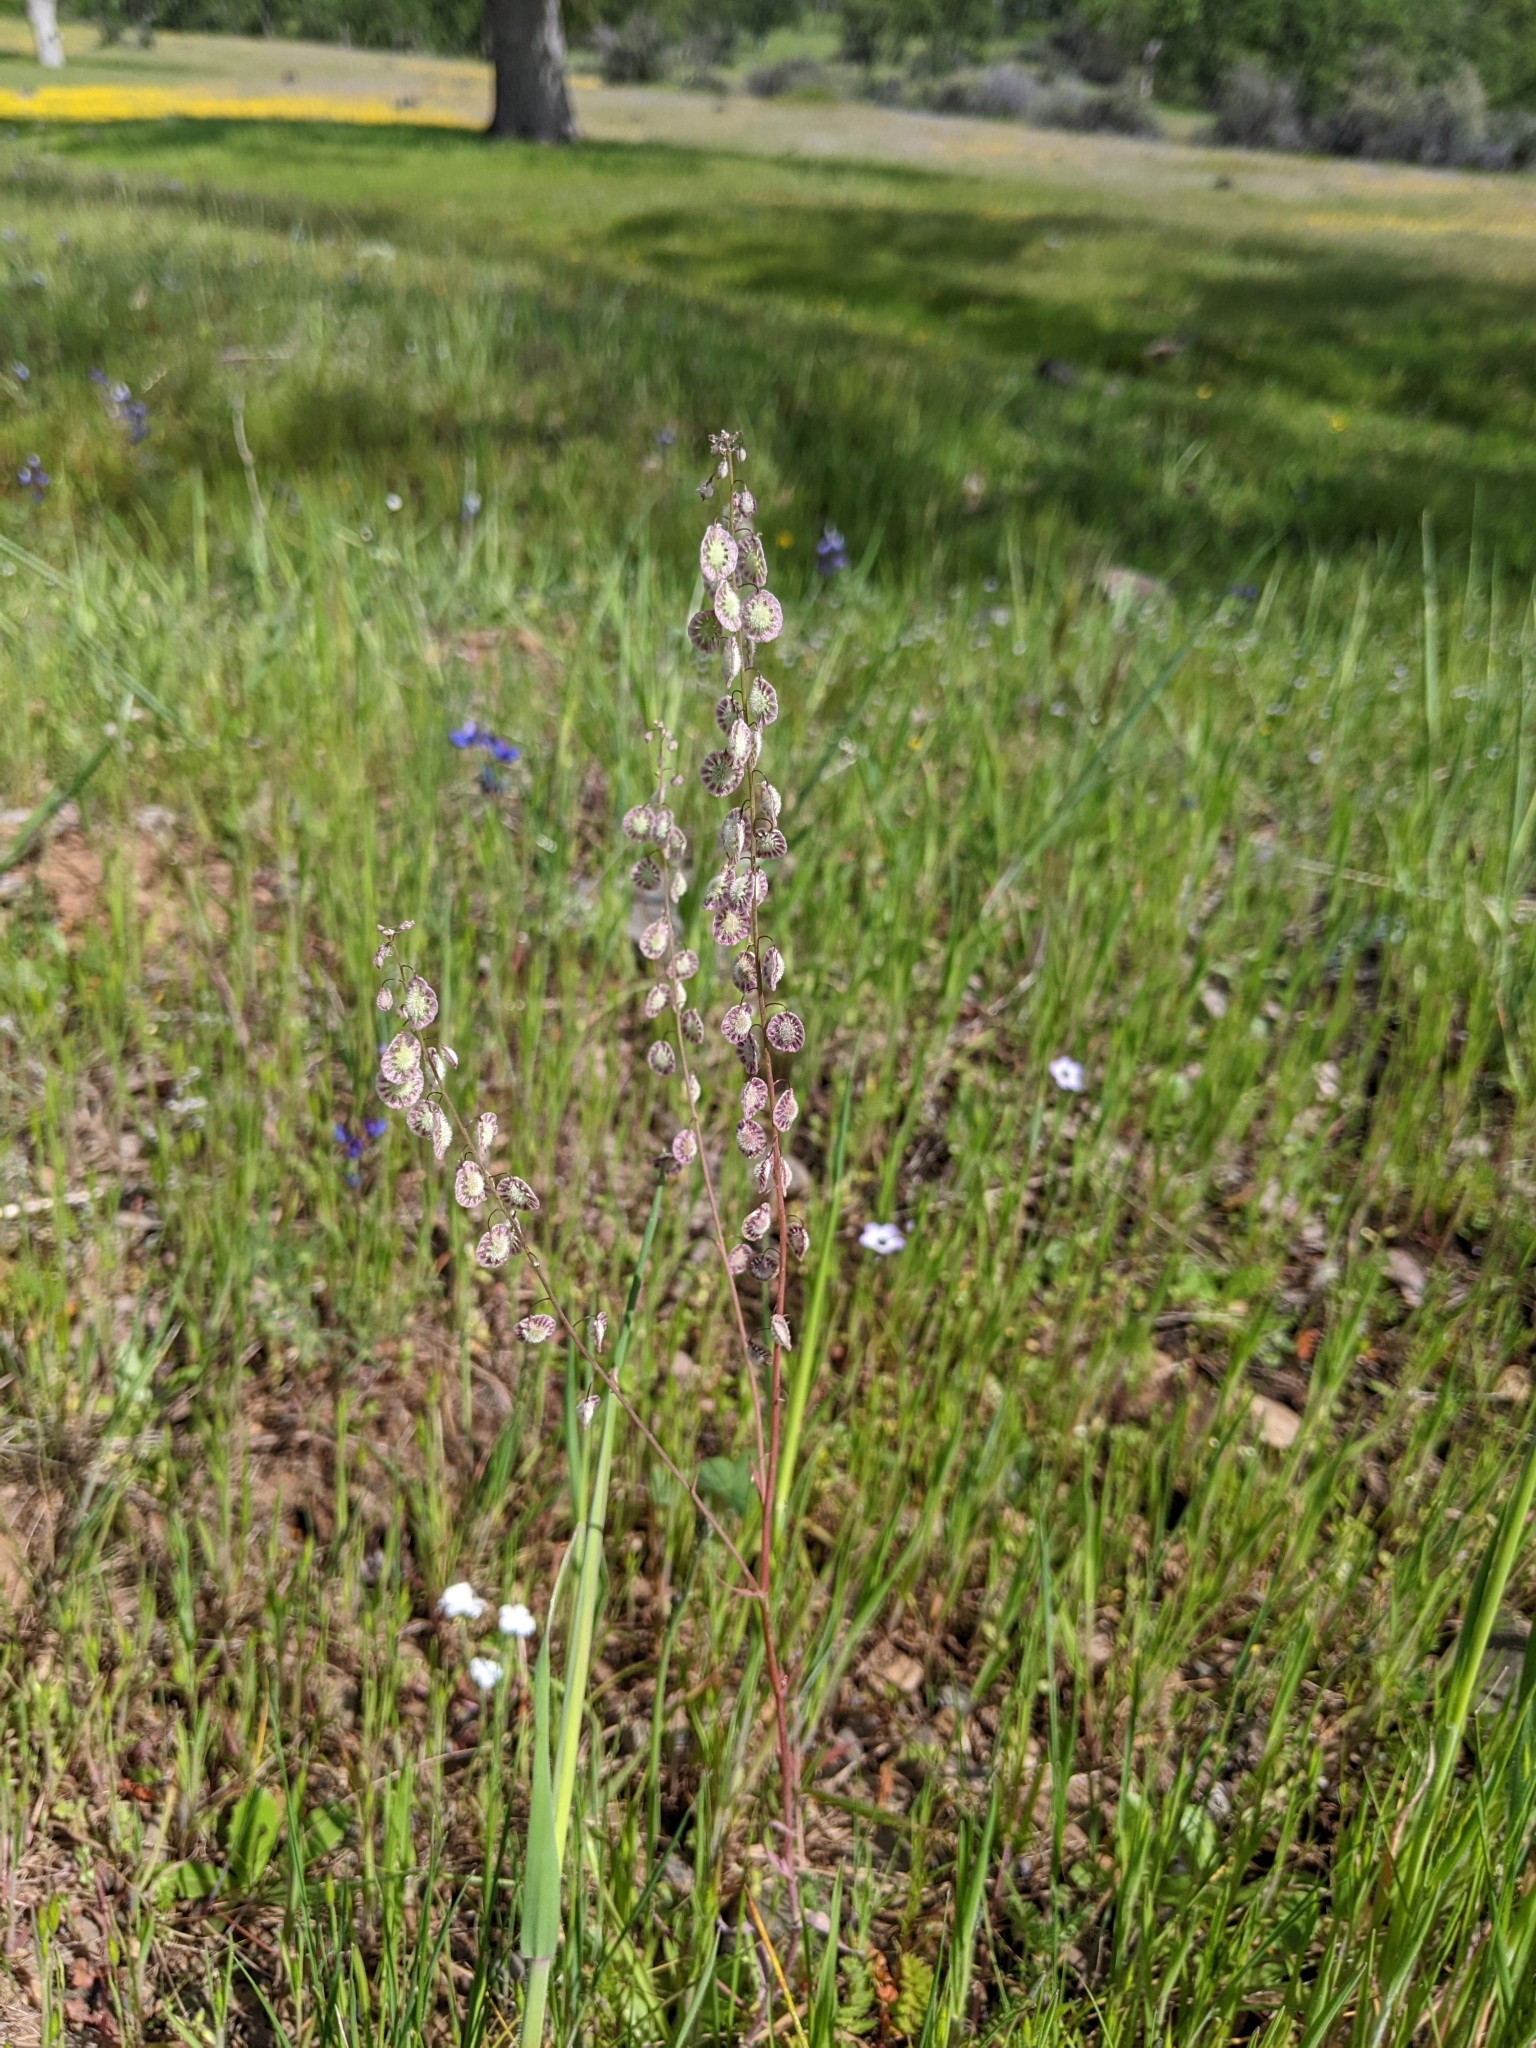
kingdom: Plantae
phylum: Tracheophyta
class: Magnoliopsida
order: Brassicales
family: Brassicaceae
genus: Thysanocarpus
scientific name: Thysanocarpus curvipes
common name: Sand fringepod
